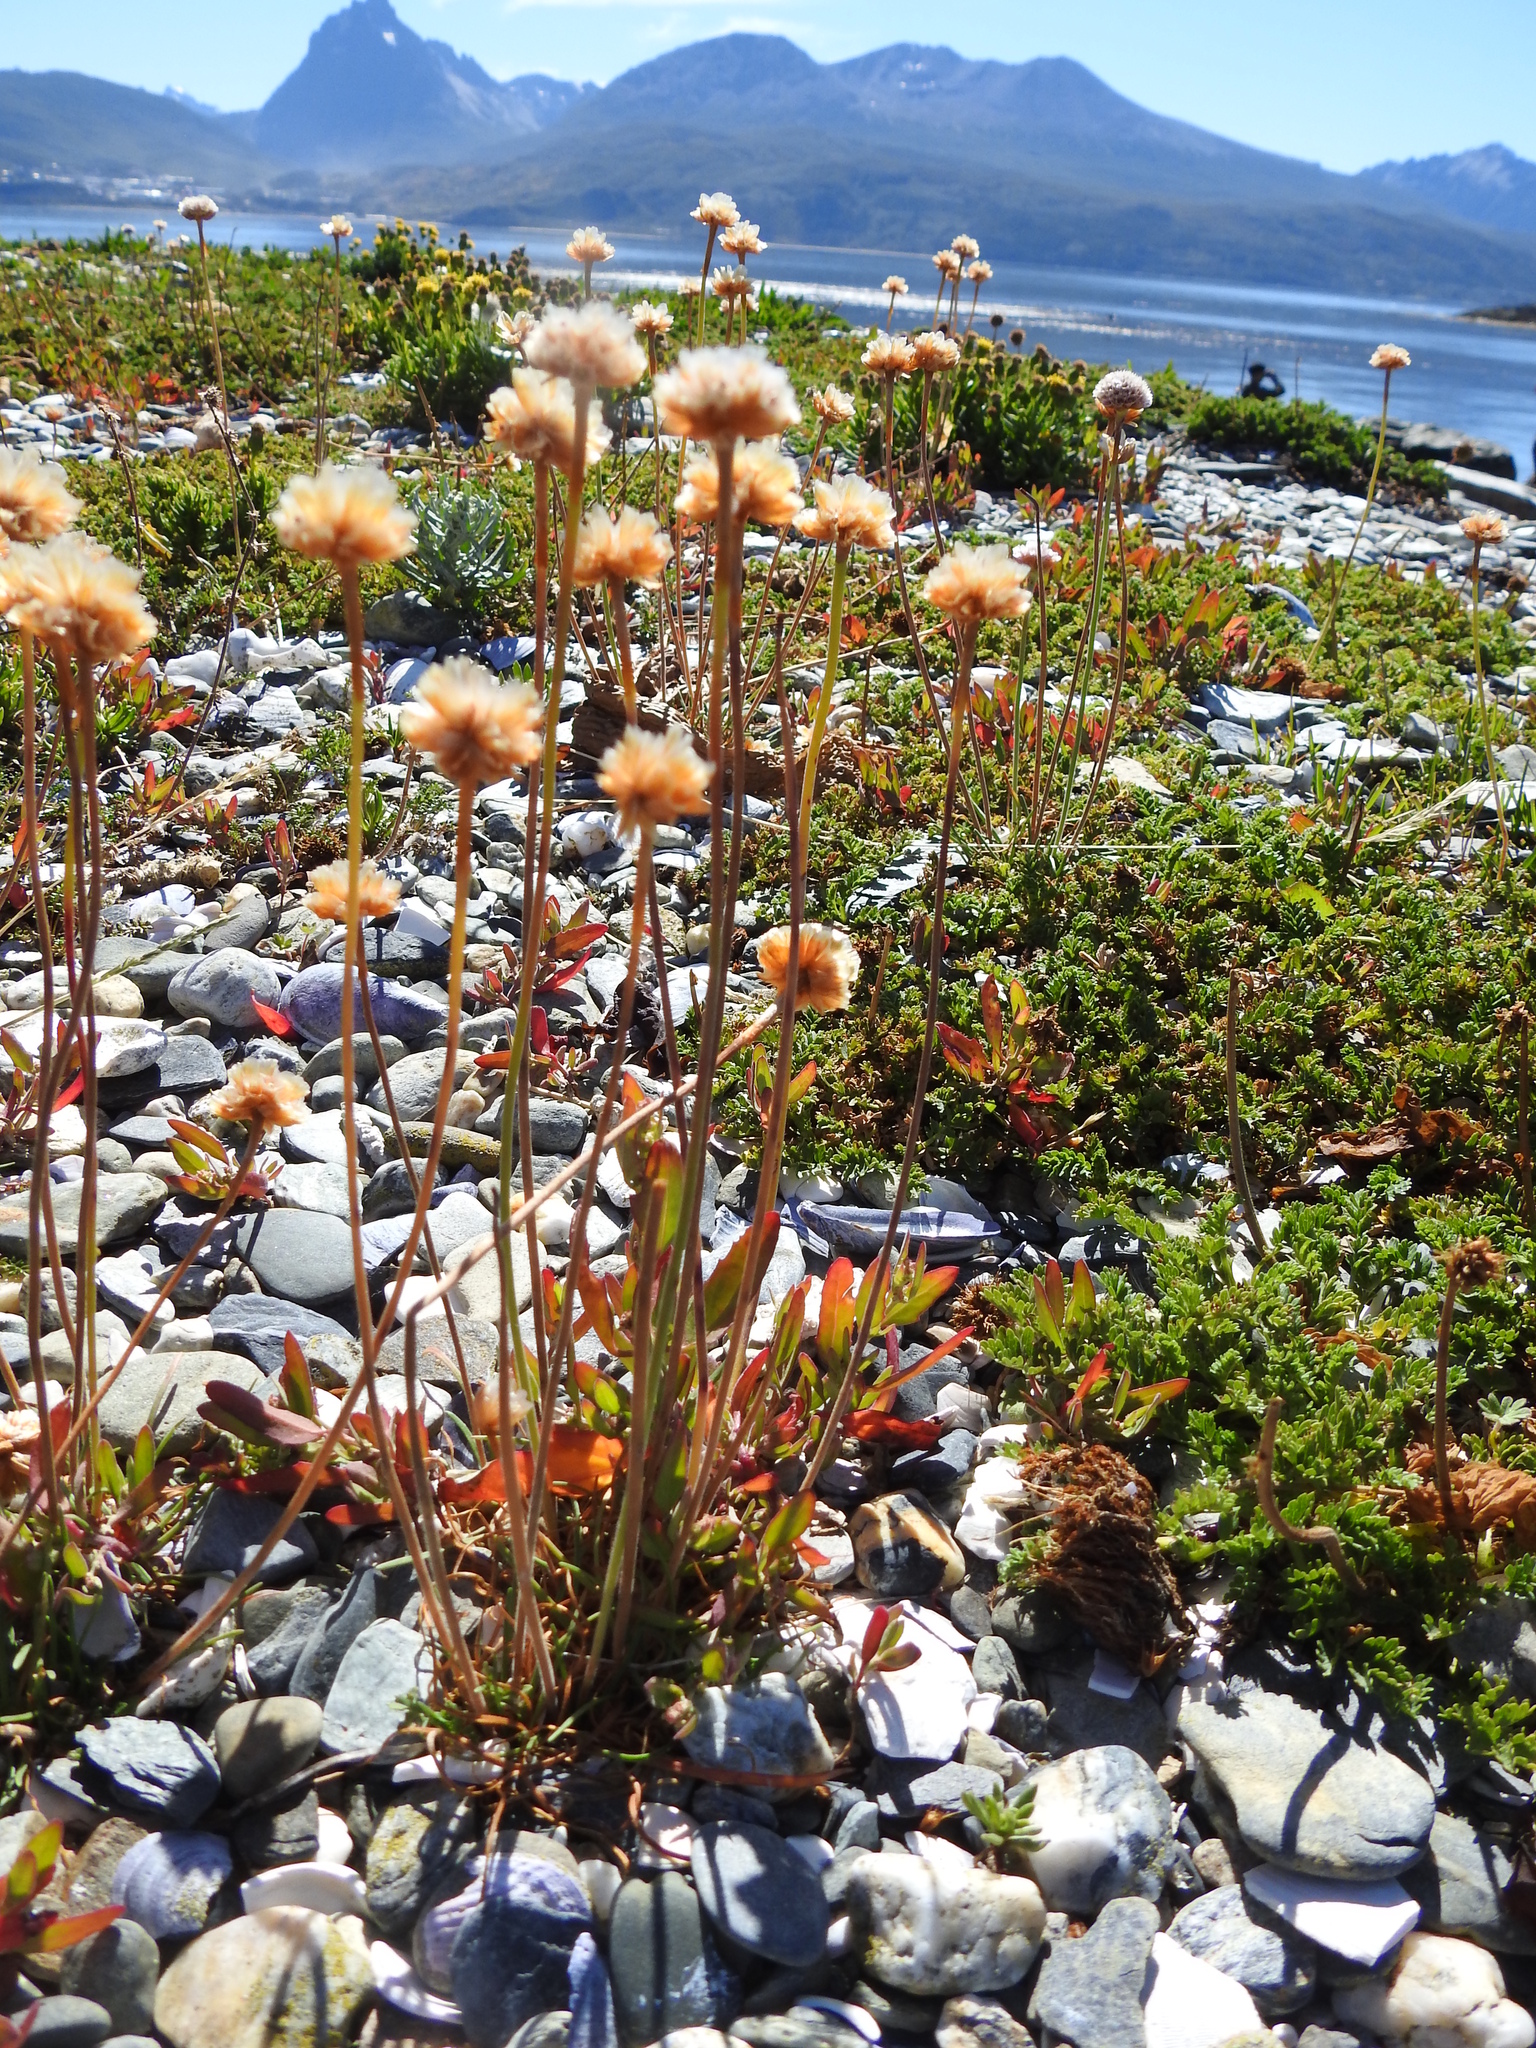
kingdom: Plantae
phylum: Tracheophyta
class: Magnoliopsida
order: Caryophyllales
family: Plumbaginaceae
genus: Armeria
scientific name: Armeria curvifolia
